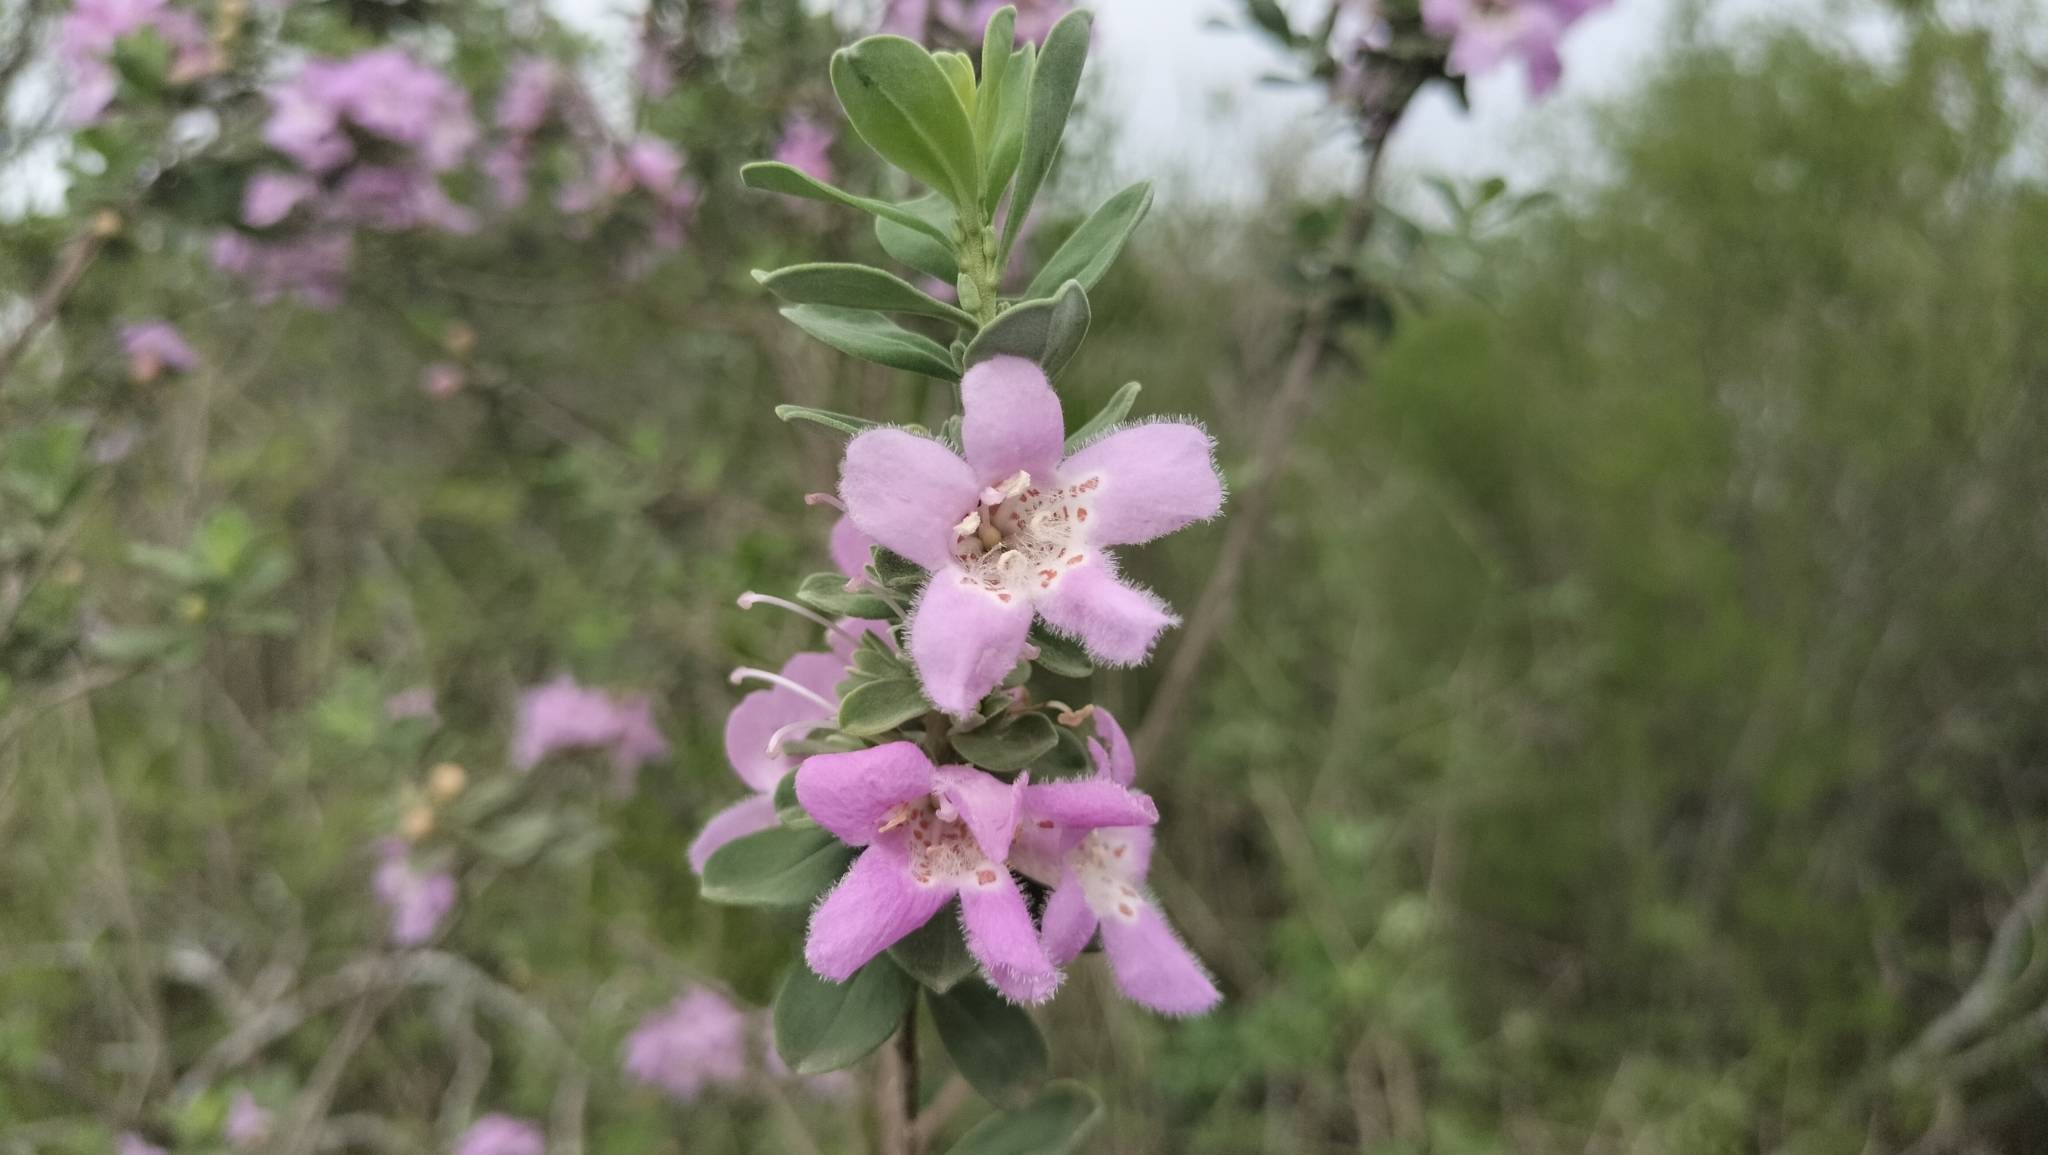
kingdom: Plantae
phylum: Tracheophyta
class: Magnoliopsida
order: Lamiales
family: Scrophulariaceae
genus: Leucophyllum
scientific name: Leucophyllum frutescens
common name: Texas silverleaf
